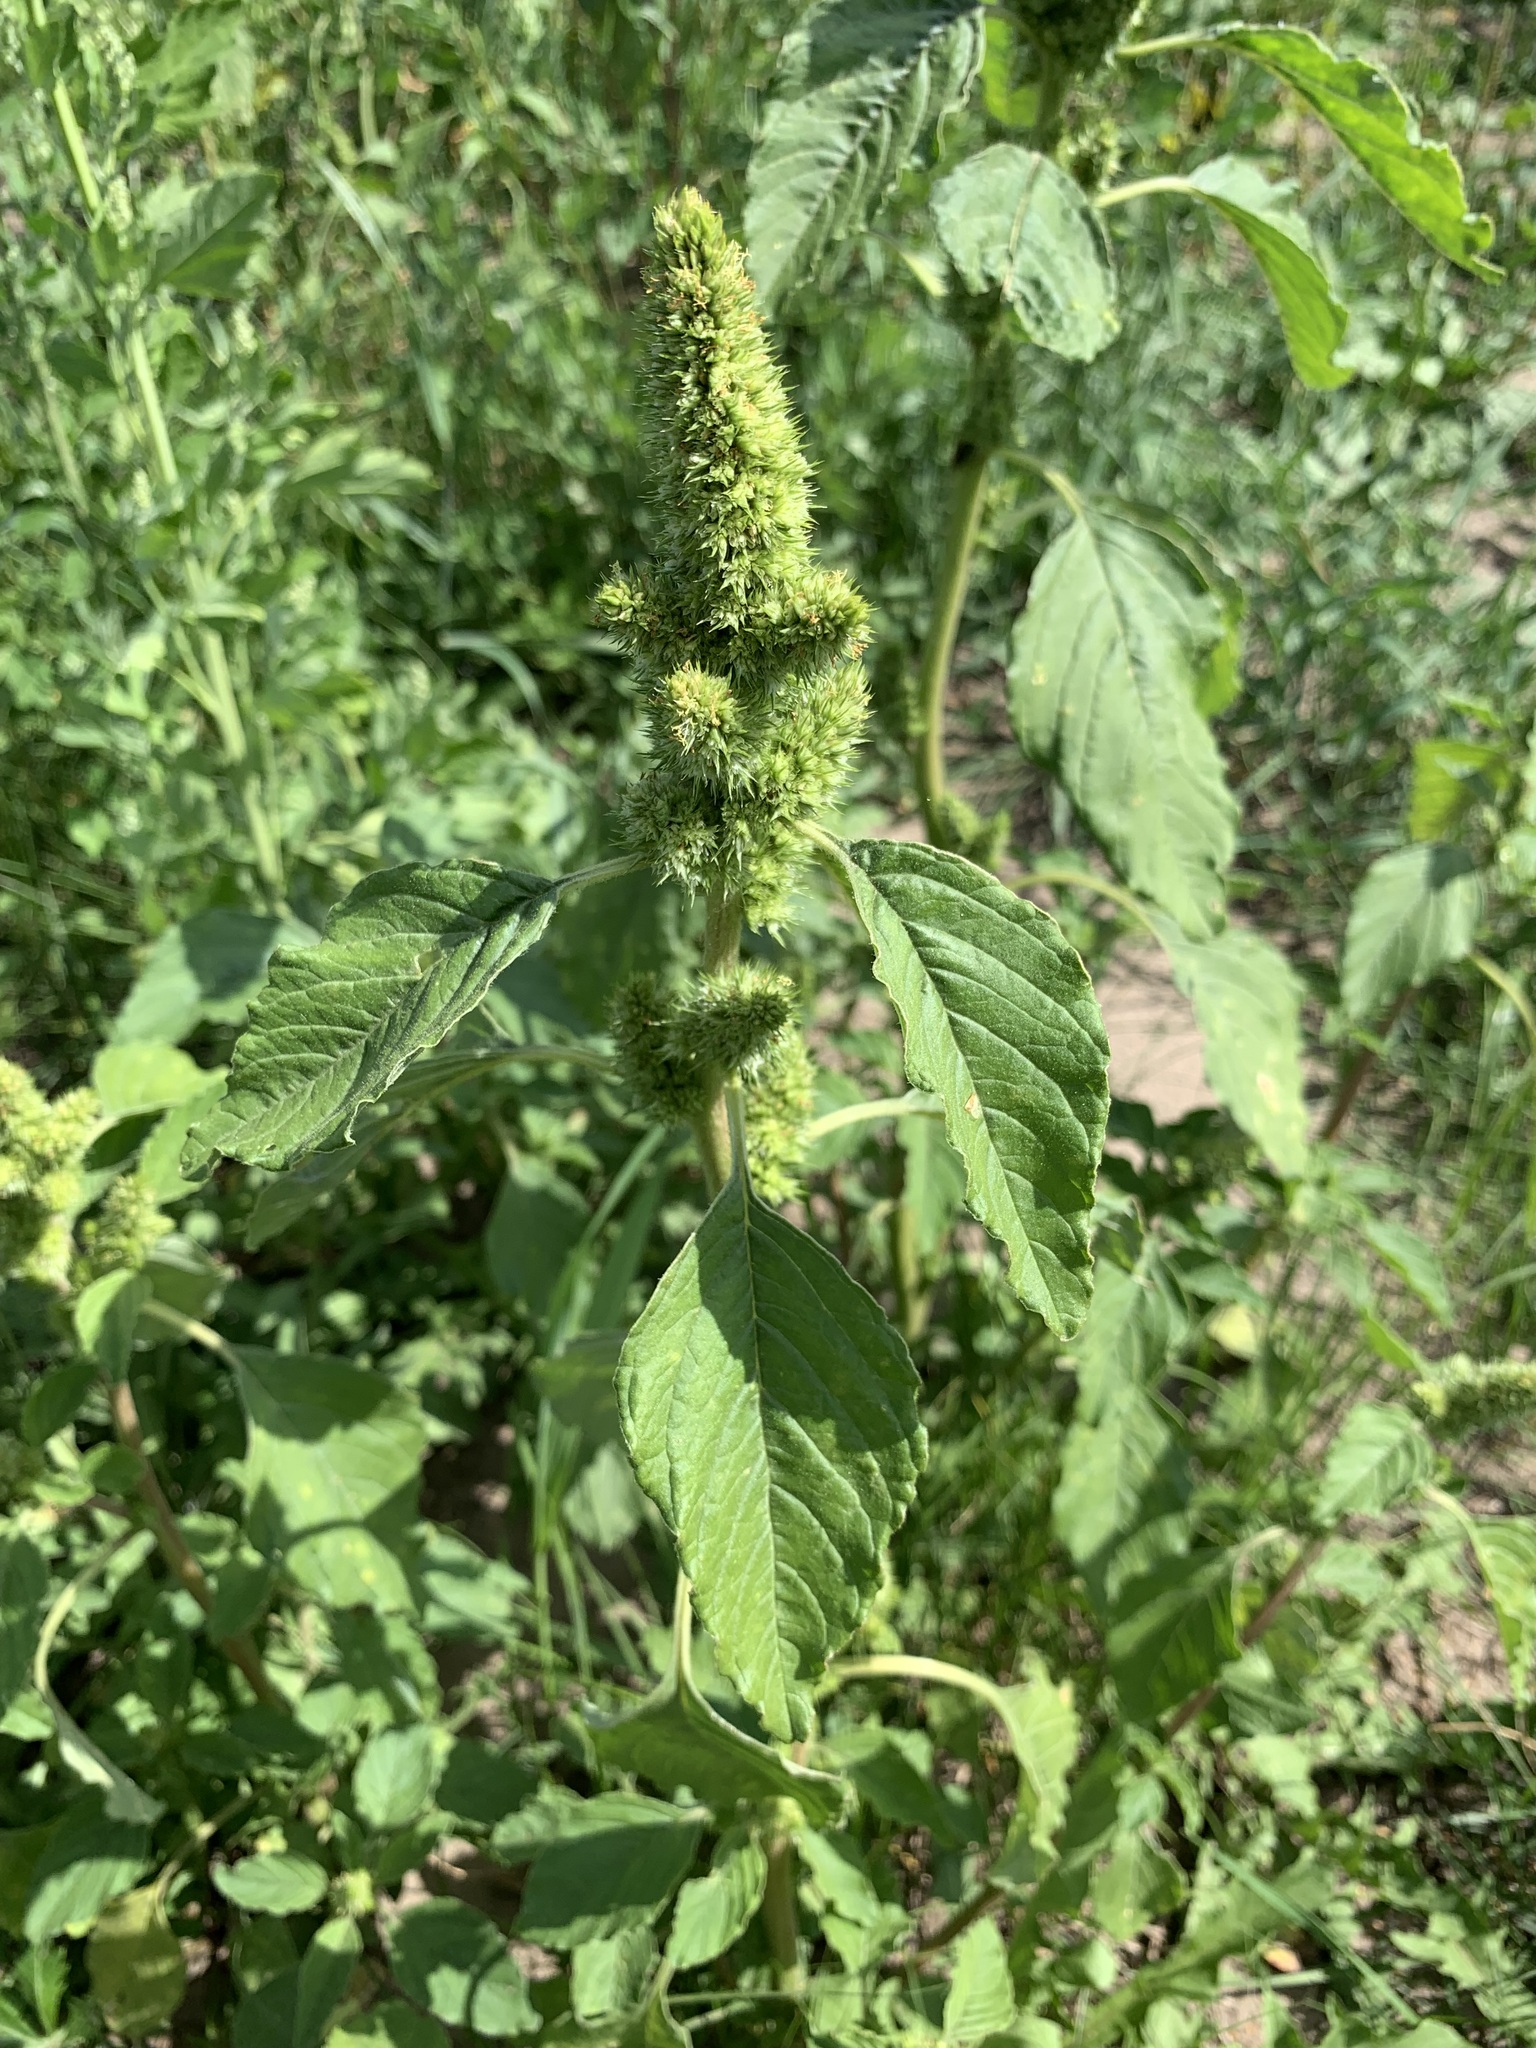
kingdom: Plantae
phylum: Tracheophyta
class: Magnoliopsida
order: Caryophyllales
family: Amaranthaceae
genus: Amaranthus
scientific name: Amaranthus retroflexus
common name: Redroot amaranth
